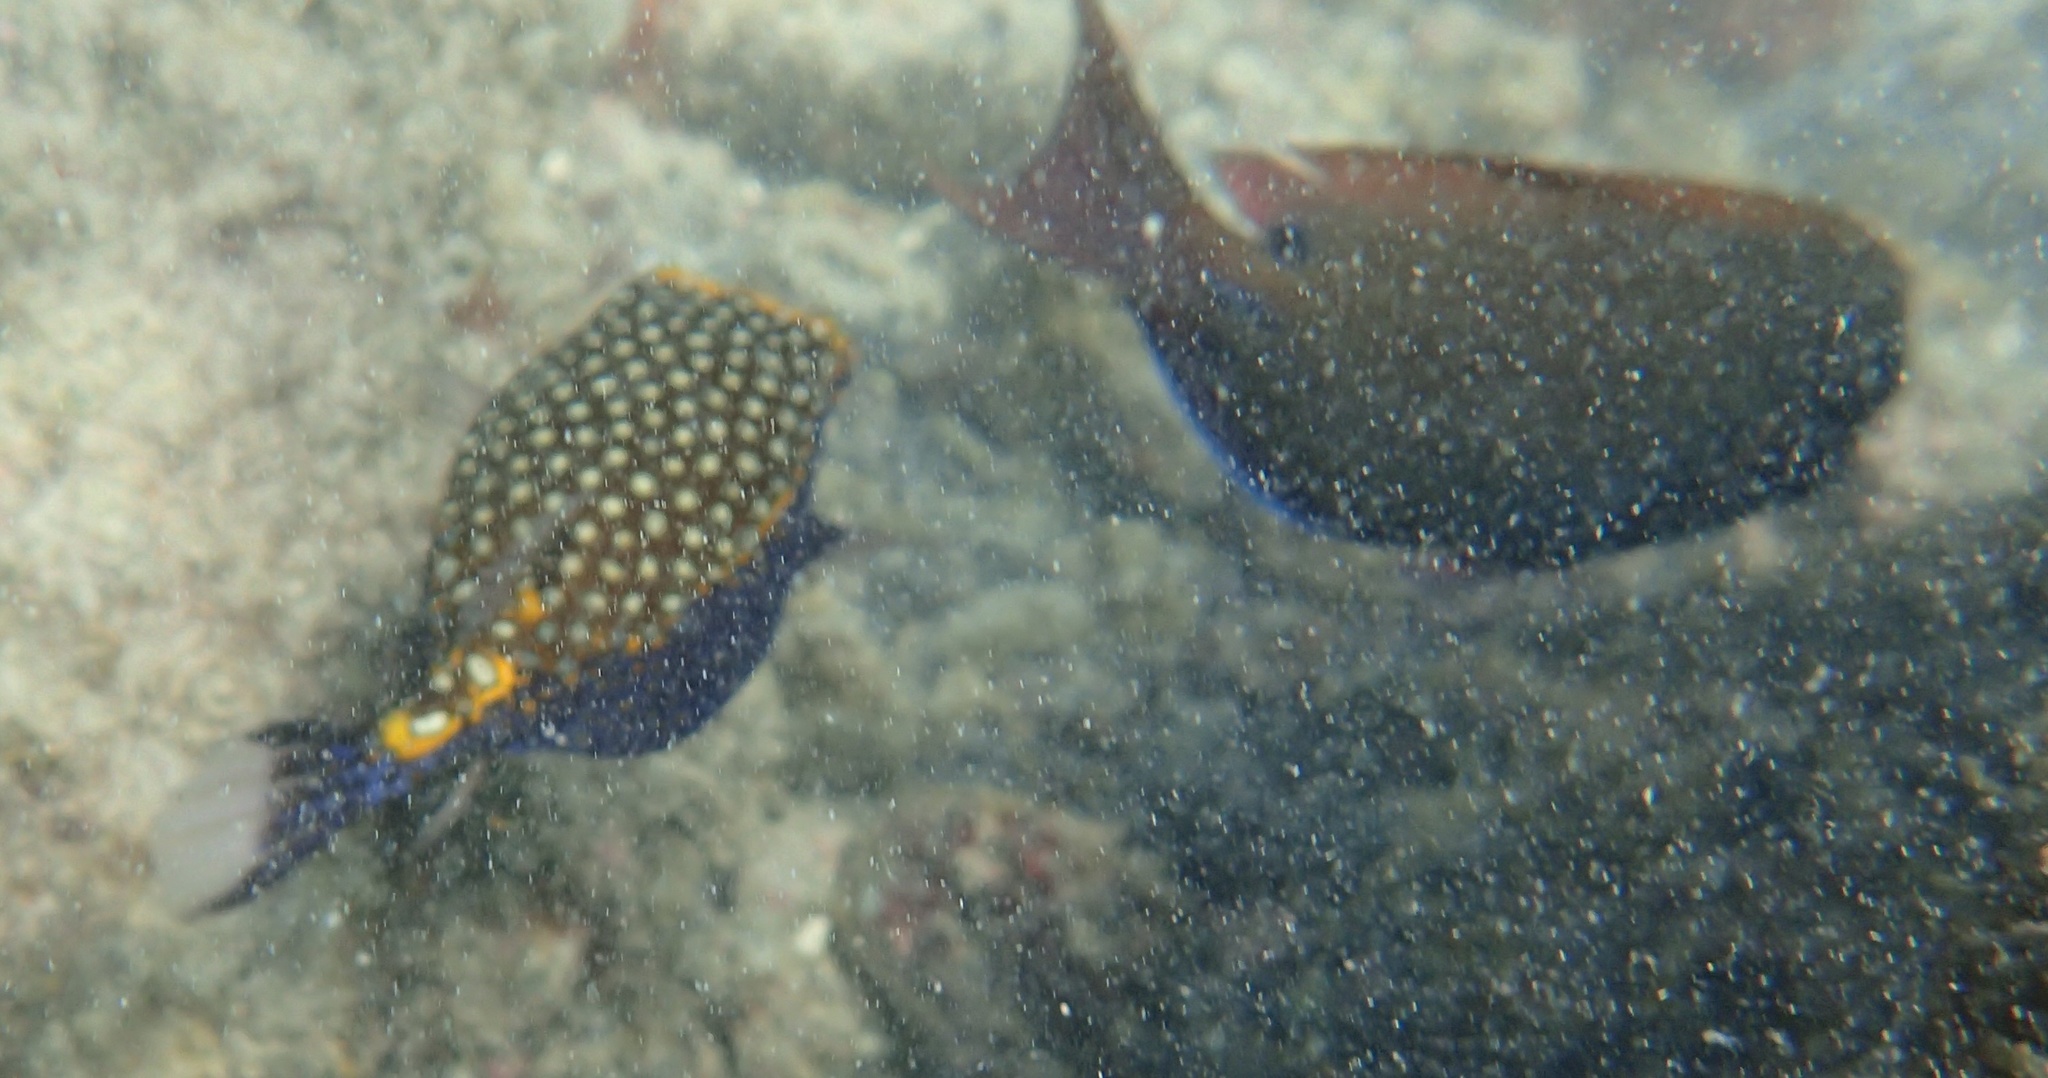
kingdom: Animalia
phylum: Chordata
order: Tetraodontiformes
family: Ostraciidae
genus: Ostracion
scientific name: Ostracion meleagris
